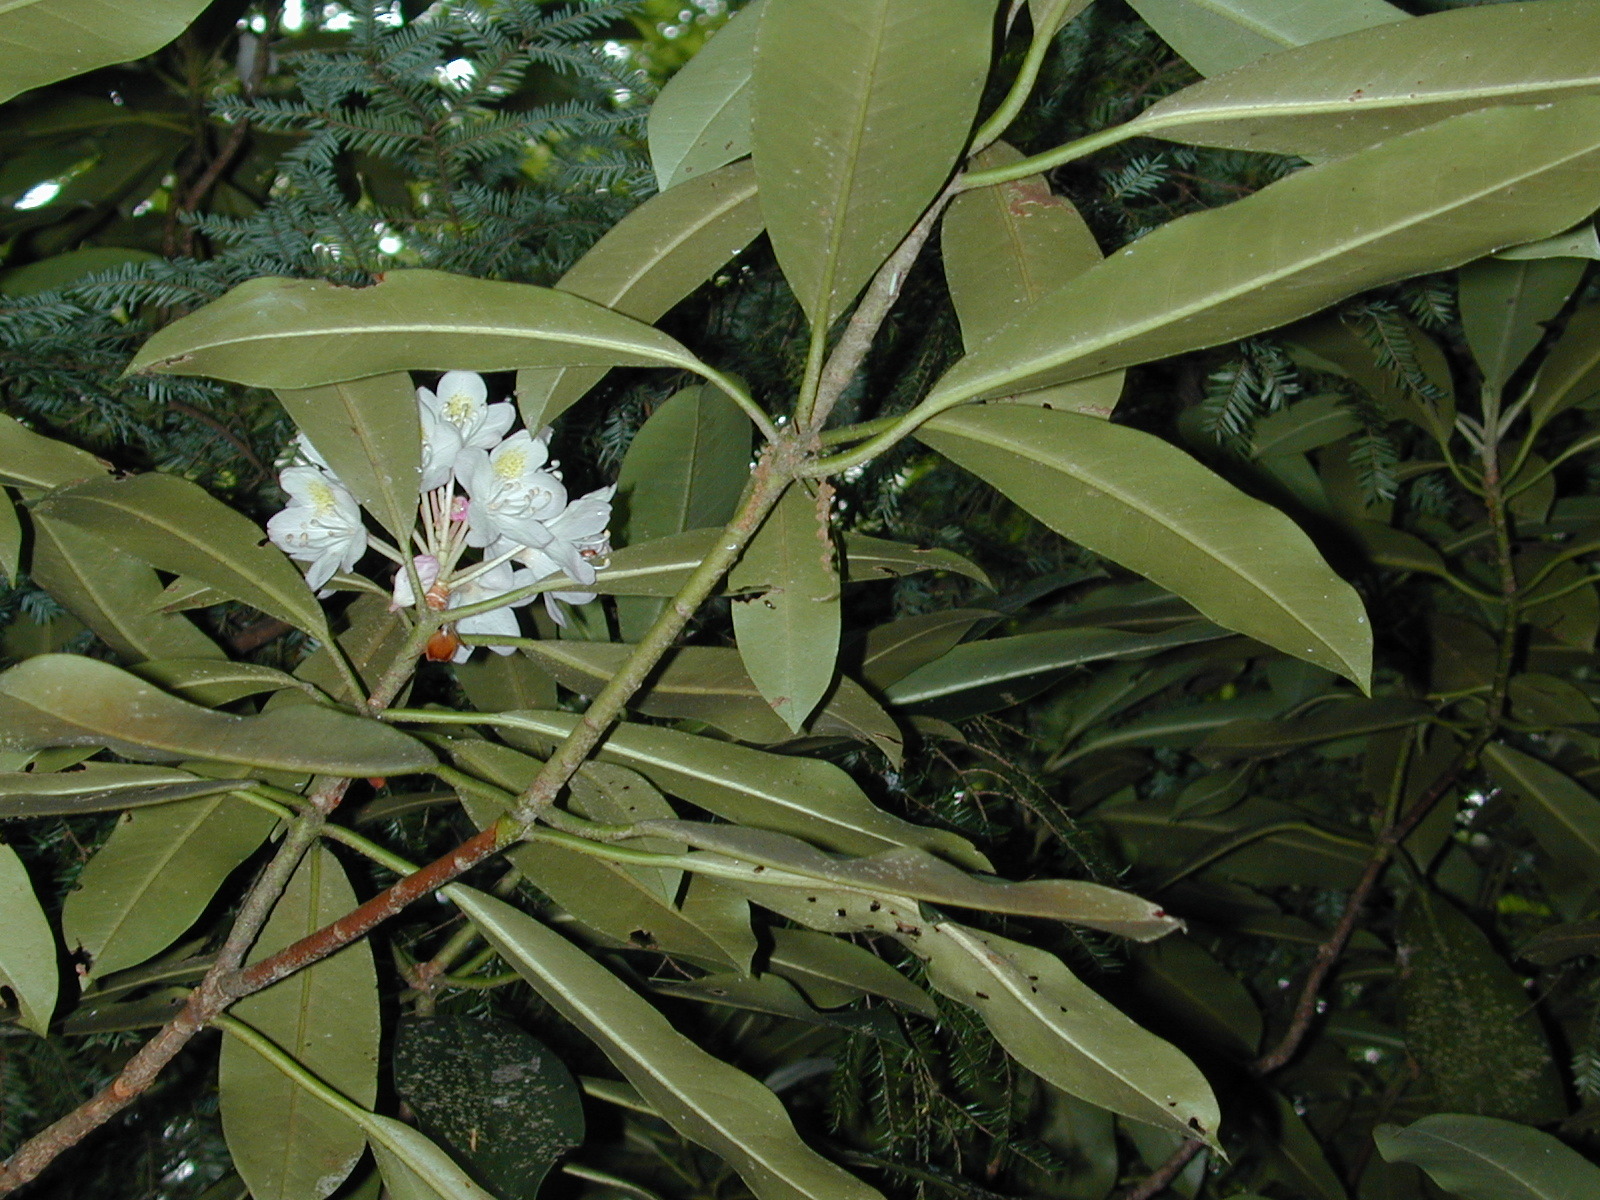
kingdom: Plantae
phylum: Tracheophyta
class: Magnoliopsida
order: Ericales
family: Ericaceae
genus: Rhododendron
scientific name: Rhododendron maximum
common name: Great rhododendron
